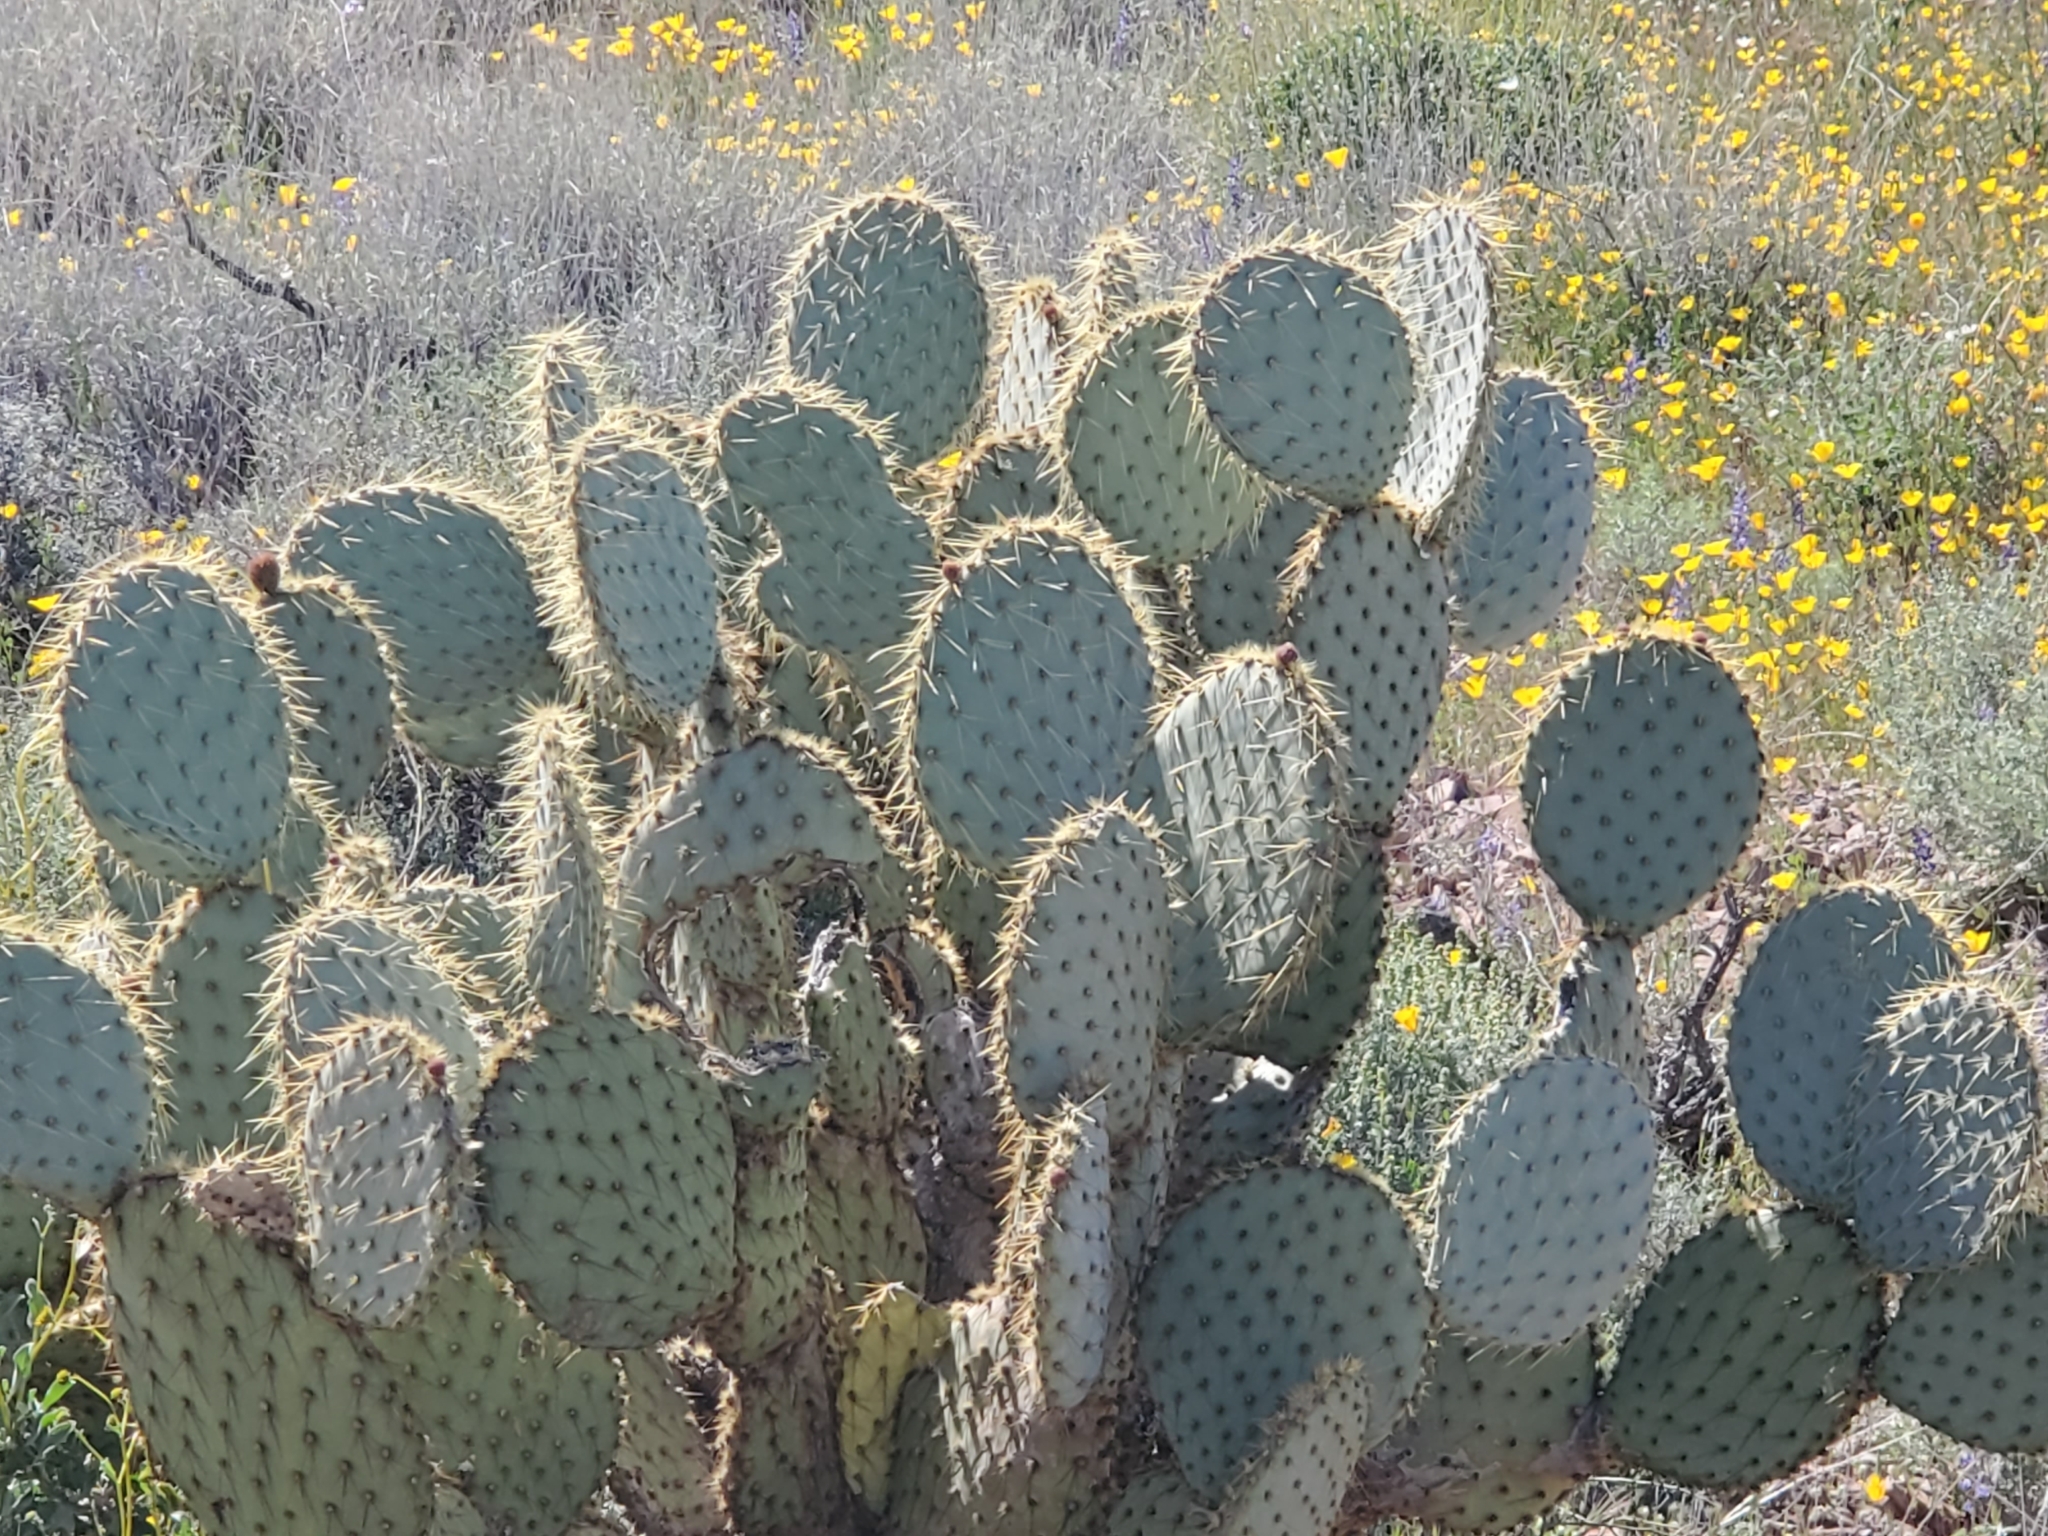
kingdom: Plantae
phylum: Tracheophyta
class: Magnoliopsida
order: Caryophyllales
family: Cactaceae
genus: Opuntia
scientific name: Opuntia chlorotica
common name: Dollar-joint prickly-pear
